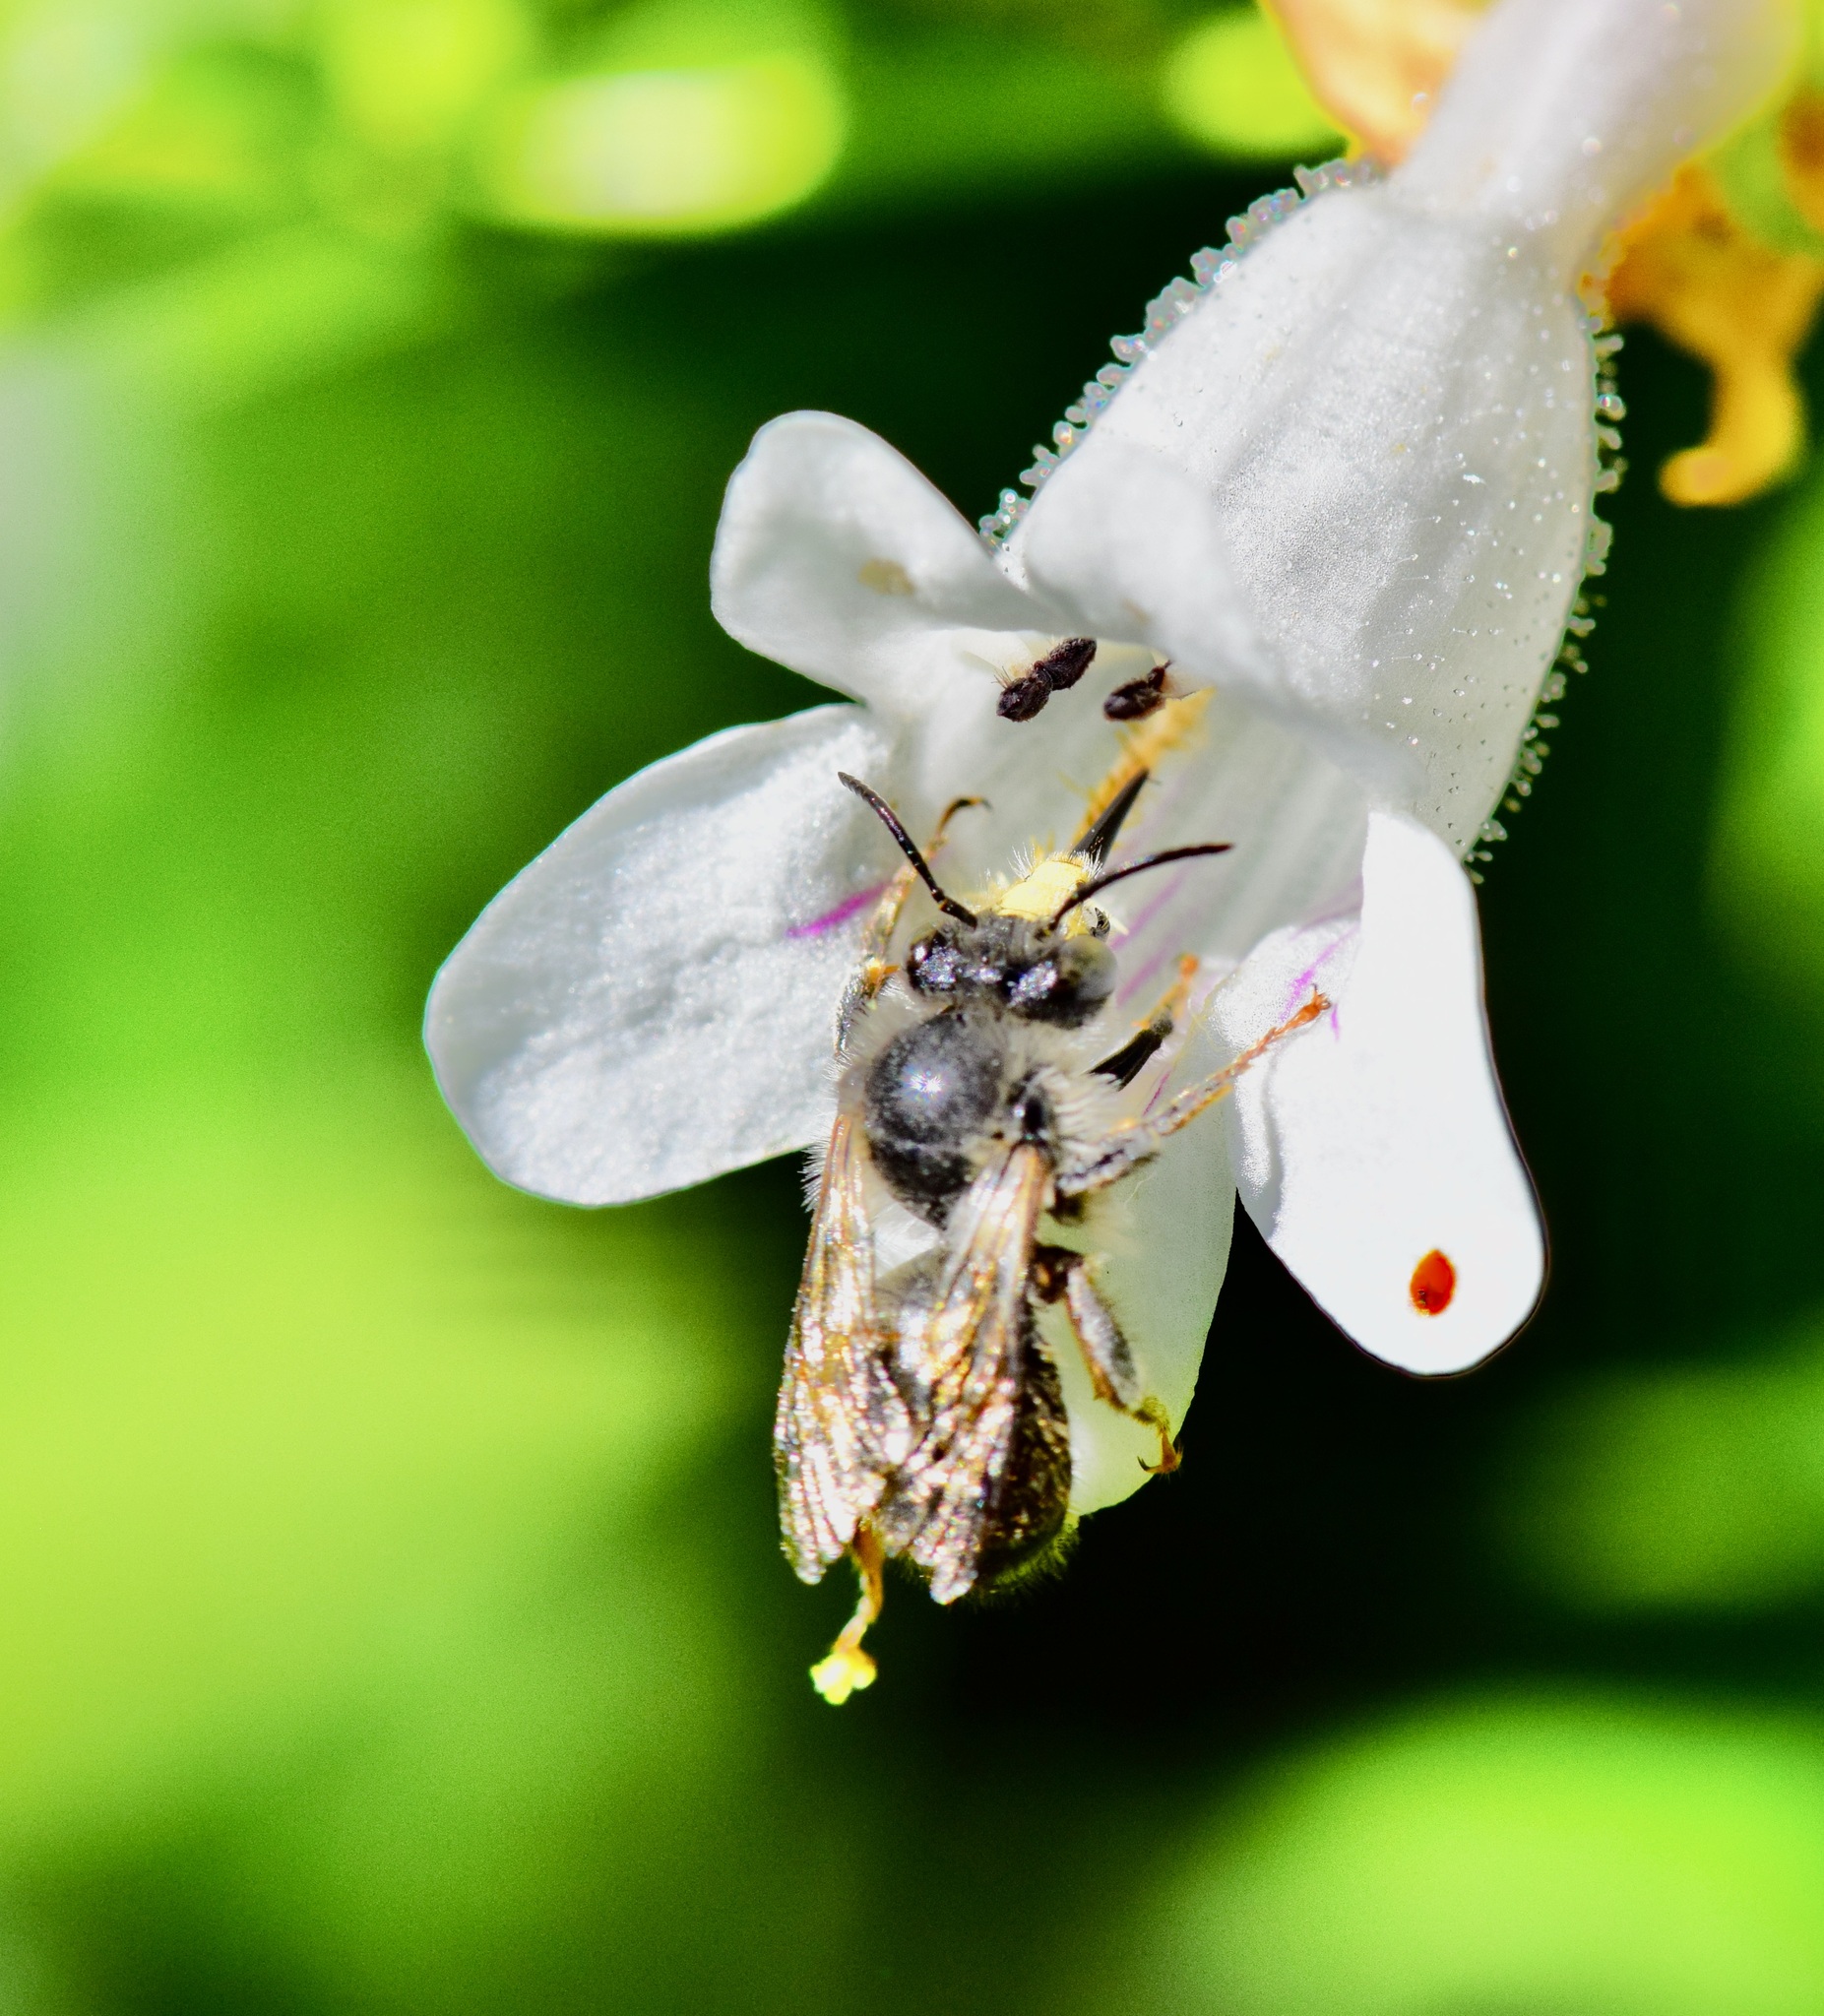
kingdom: Animalia
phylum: Arthropoda
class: Insecta
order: Hymenoptera
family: Apidae
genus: Anthophora
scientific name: Anthophora terminalis
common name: Orange-tipped wood-digger bee
